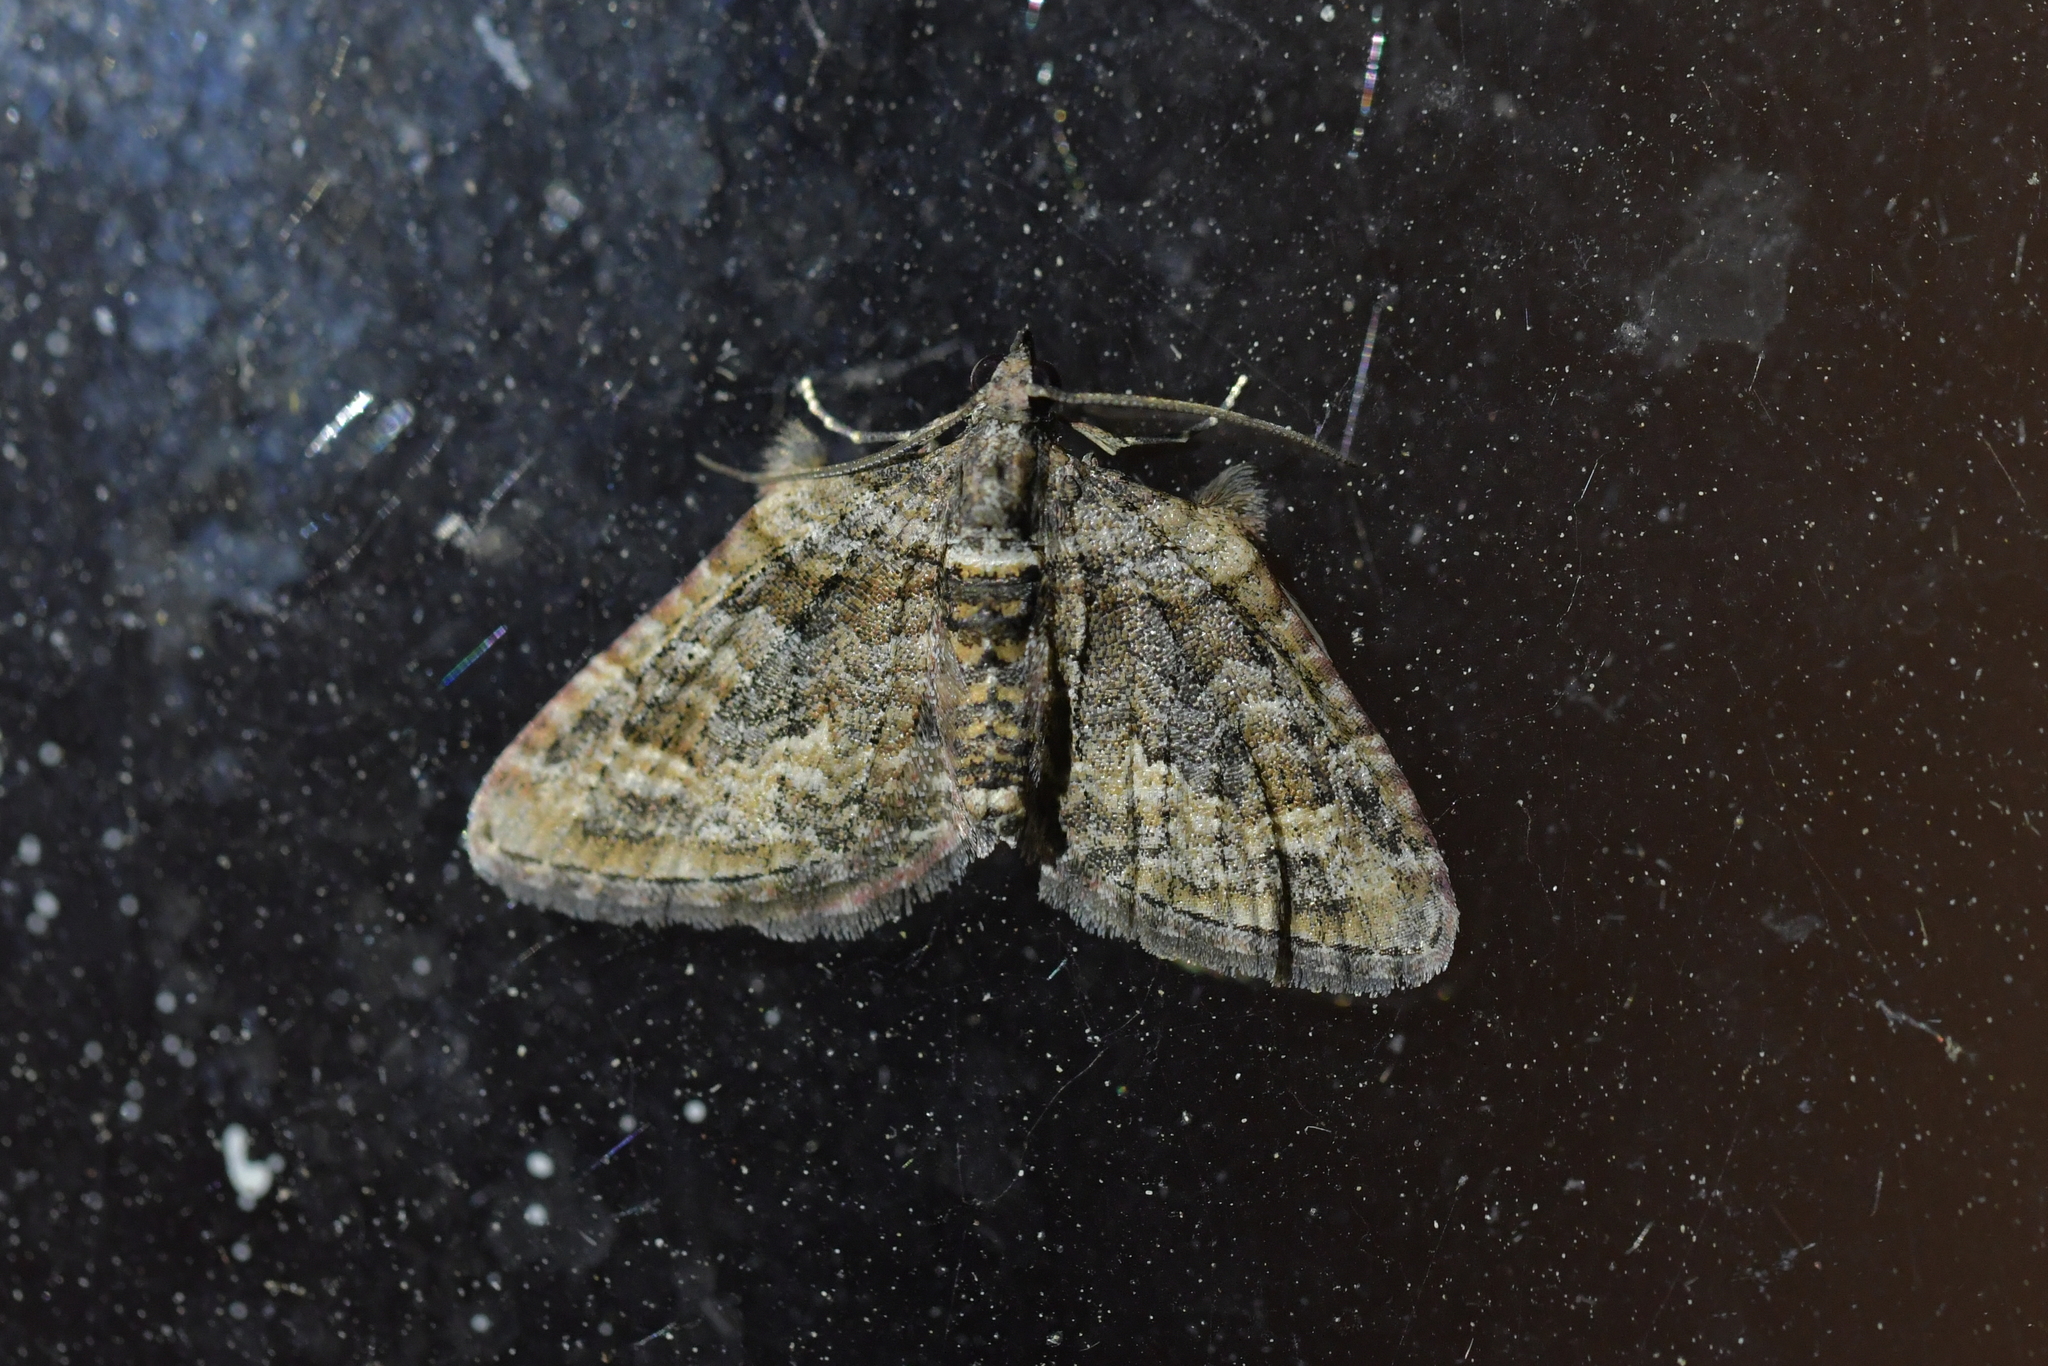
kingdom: Animalia
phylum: Arthropoda
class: Insecta
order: Lepidoptera
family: Geometridae
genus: Phrissogonus
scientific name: Phrissogonus laticostata
